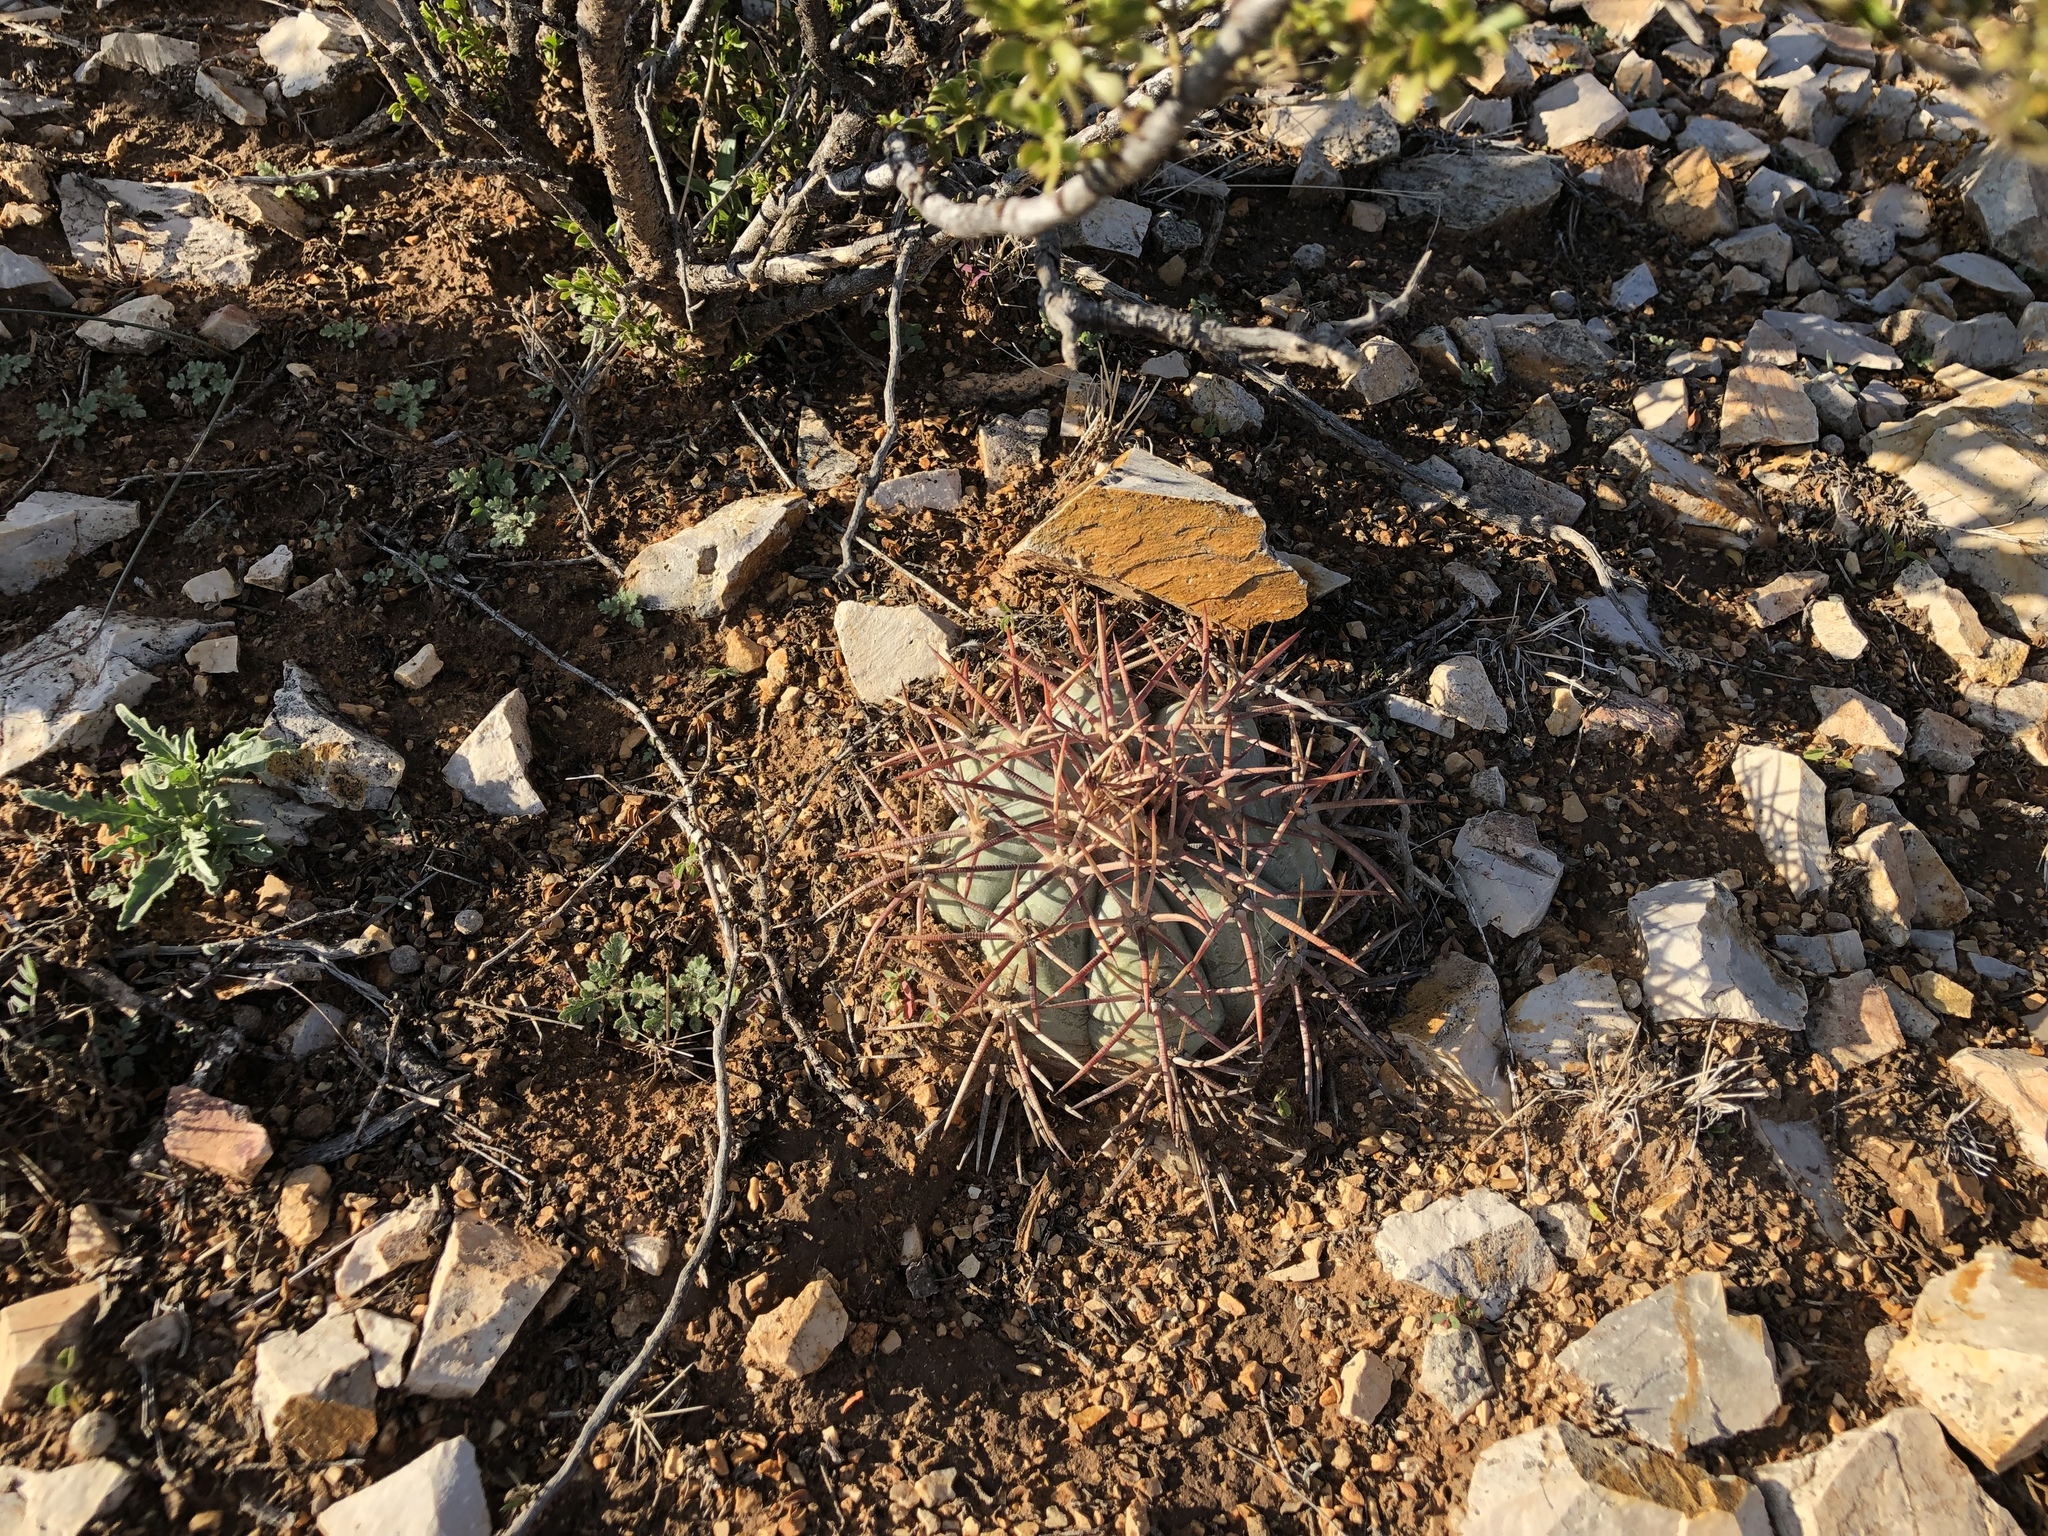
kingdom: Plantae
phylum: Tracheophyta
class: Magnoliopsida
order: Caryophyllales
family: Cactaceae
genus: Echinocactus
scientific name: Echinocactus horizonthalonius
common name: Devilshead
